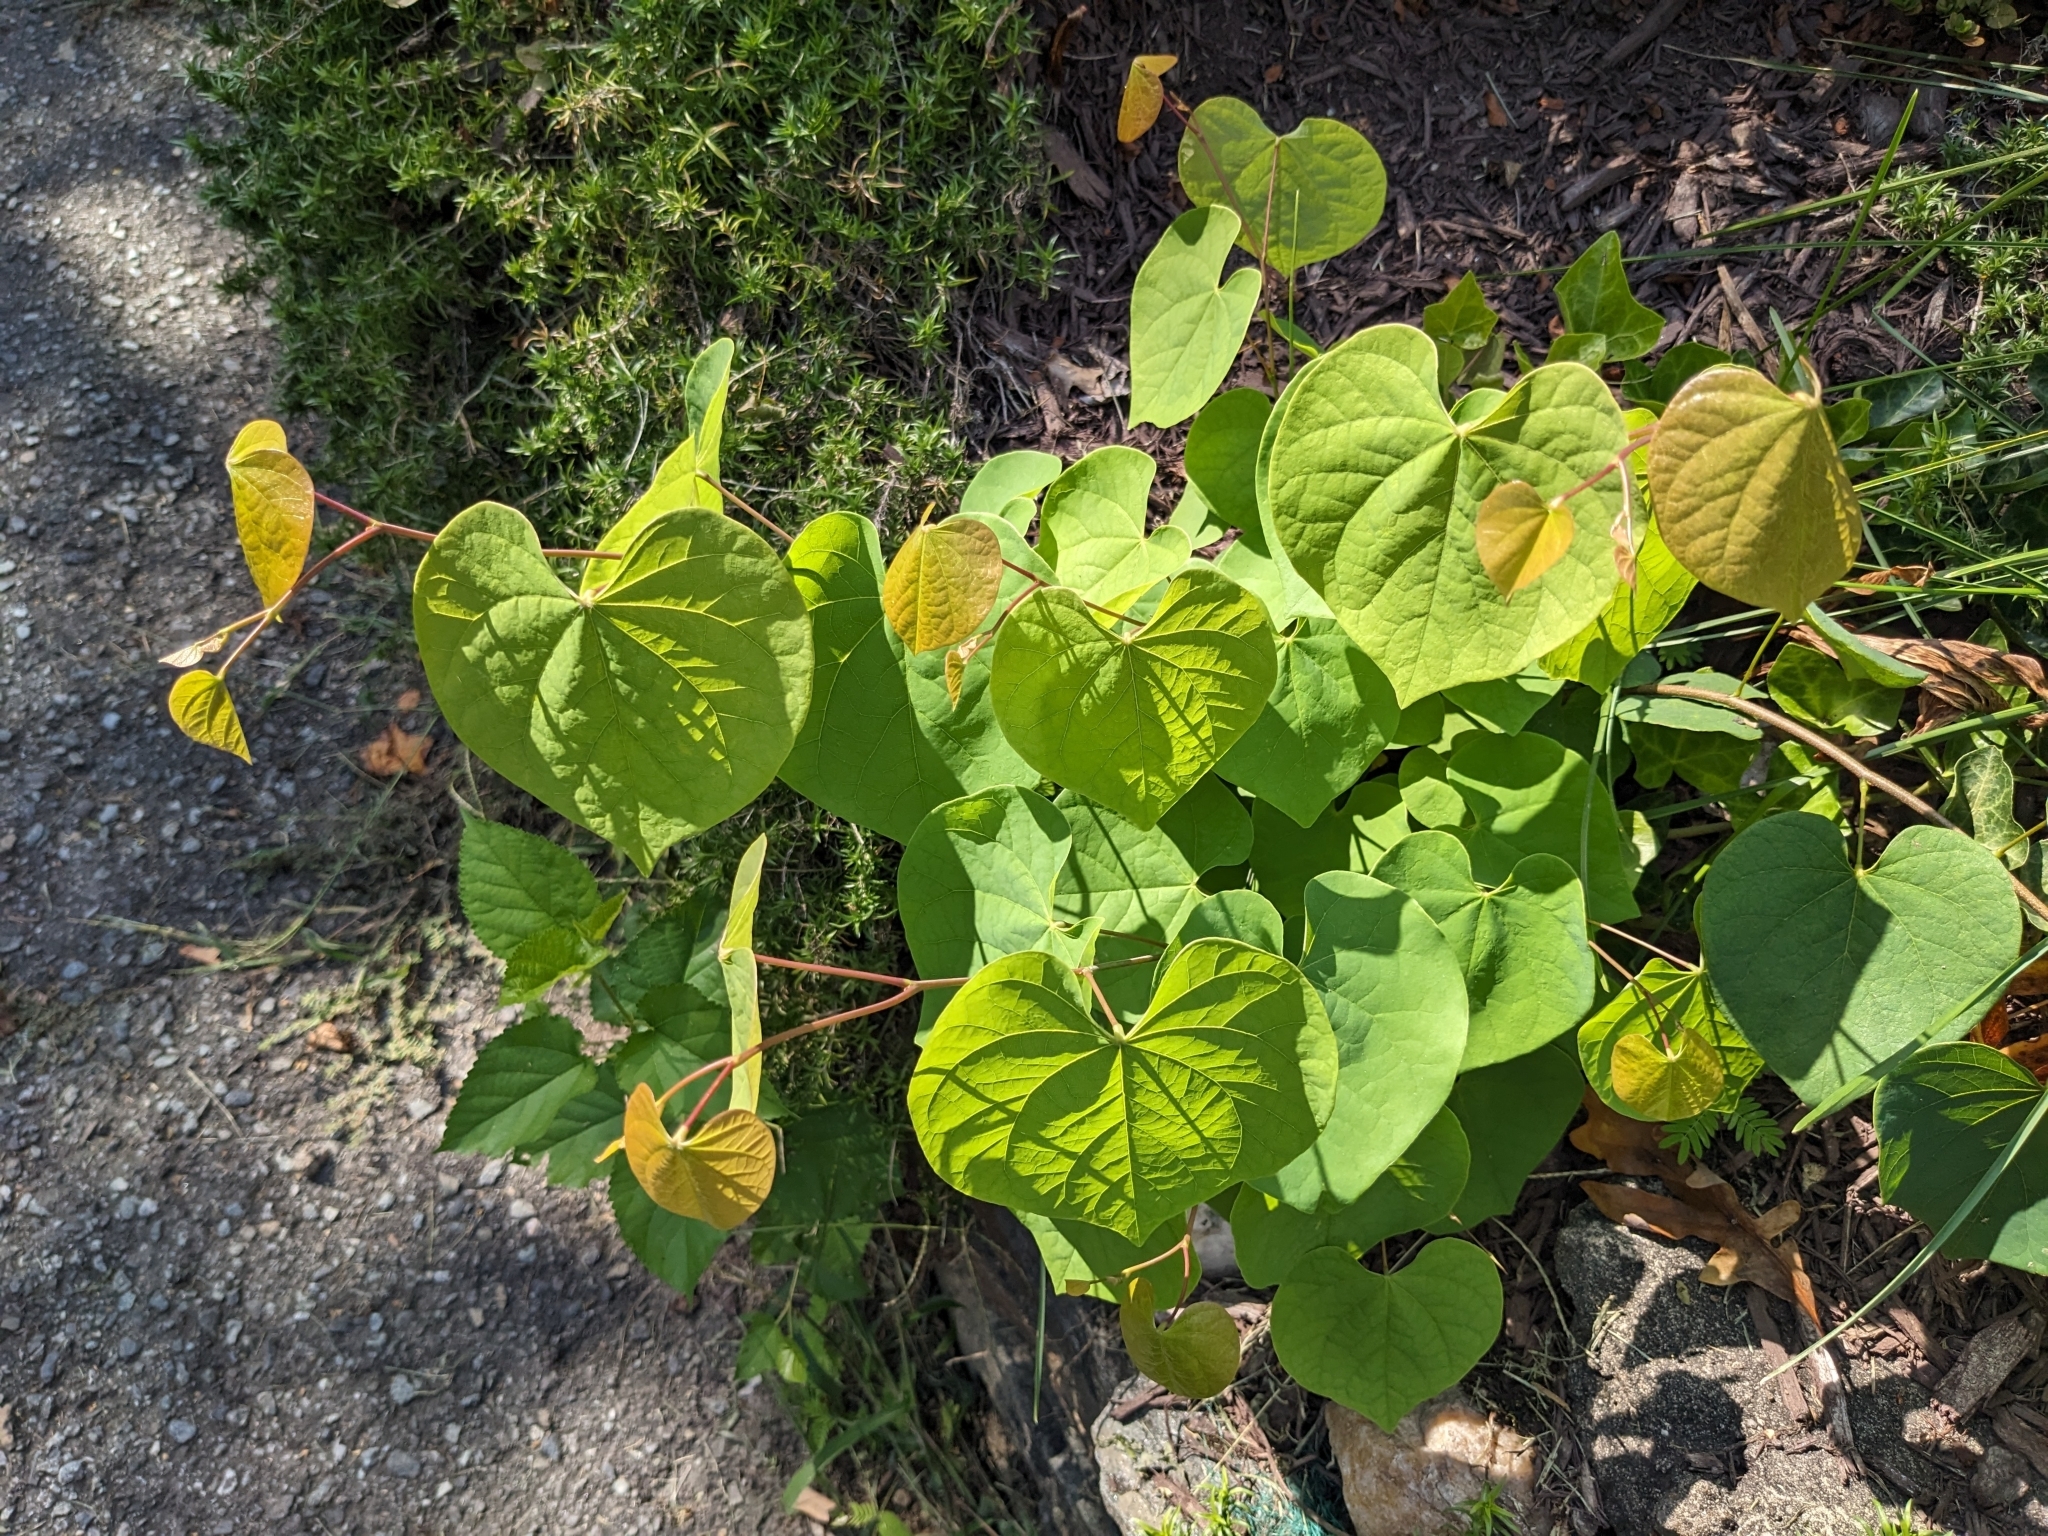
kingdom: Plantae
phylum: Tracheophyta
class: Magnoliopsida
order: Fabales
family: Fabaceae
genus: Cercis
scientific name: Cercis canadensis
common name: Eastern redbud
